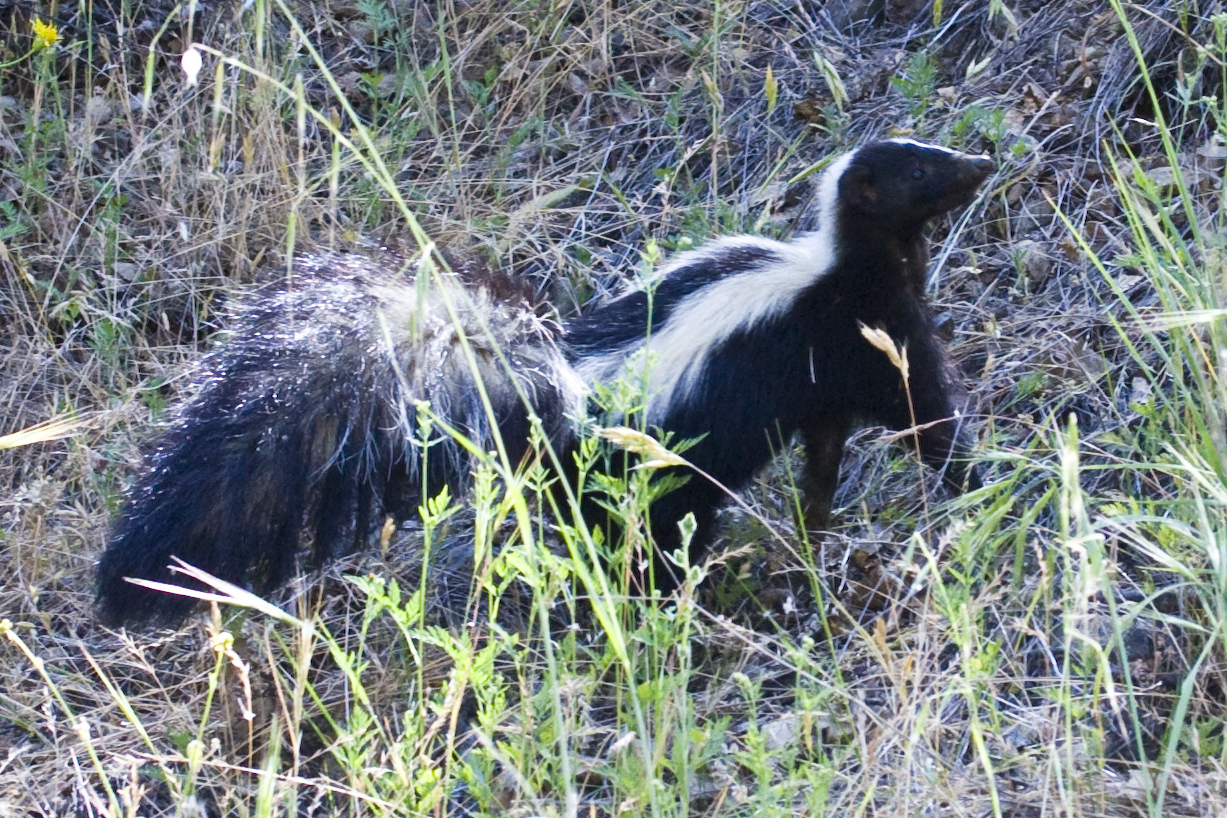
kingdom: Animalia
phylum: Chordata
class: Mammalia
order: Carnivora
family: Mephitidae
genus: Mephitis
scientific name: Mephitis mephitis
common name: Striped skunk
